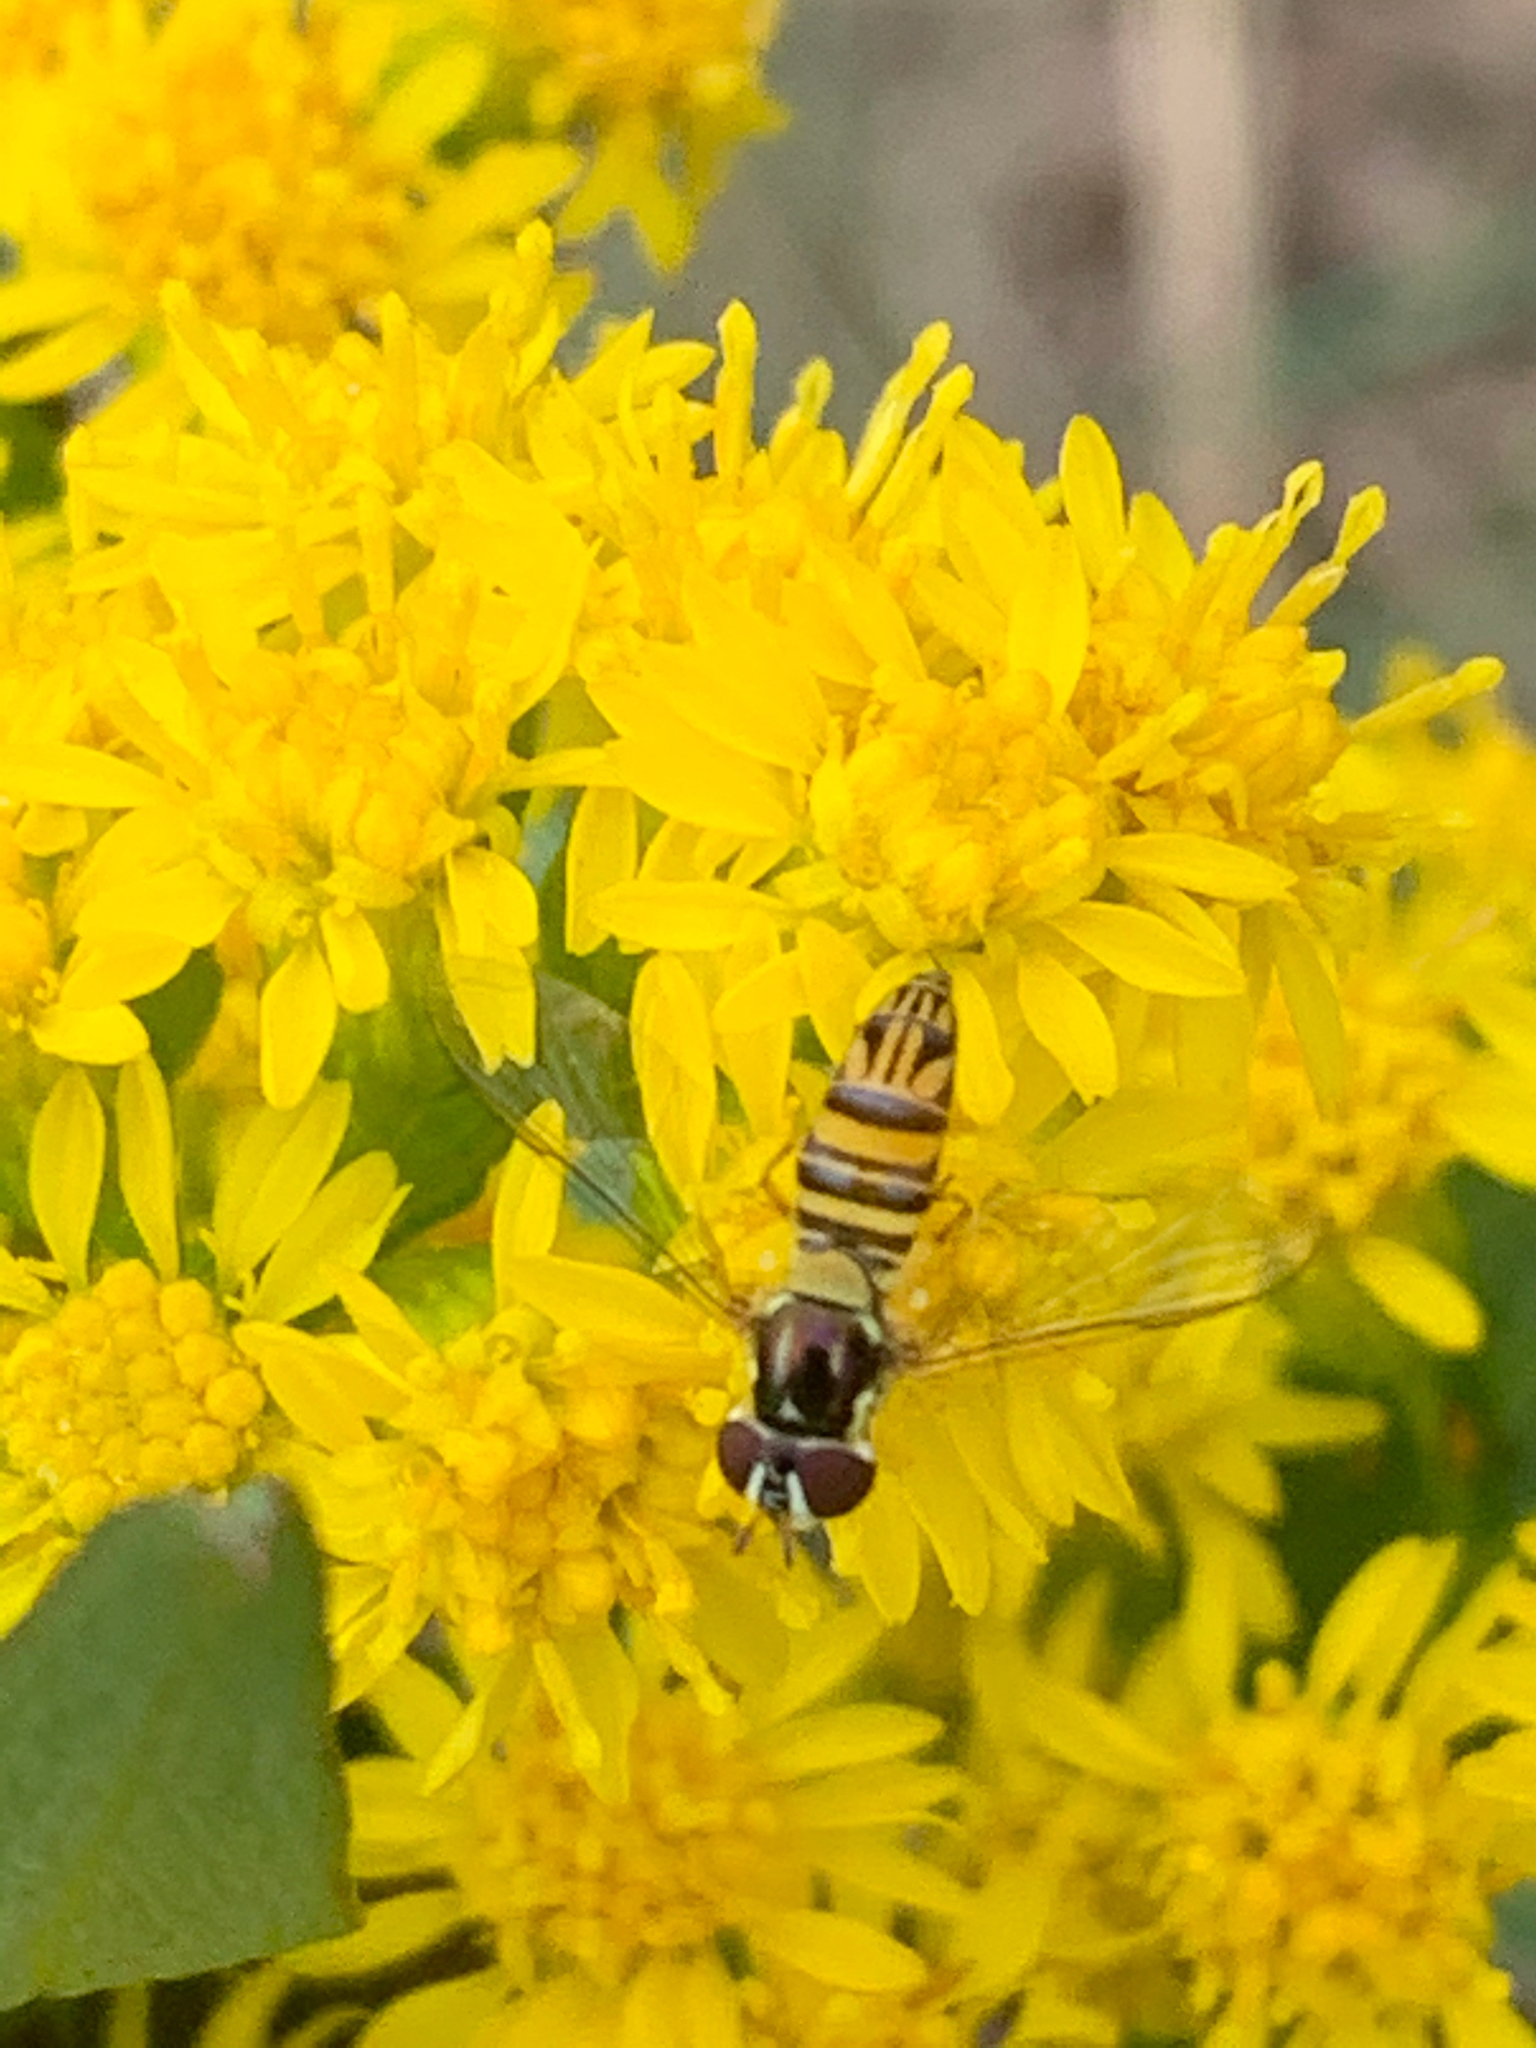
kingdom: Animalia
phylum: Arthropoda
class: Insecta
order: Diptera
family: Syrphidae
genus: Allograpta
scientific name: Allograpta obliqua
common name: Common oblique syrphid
